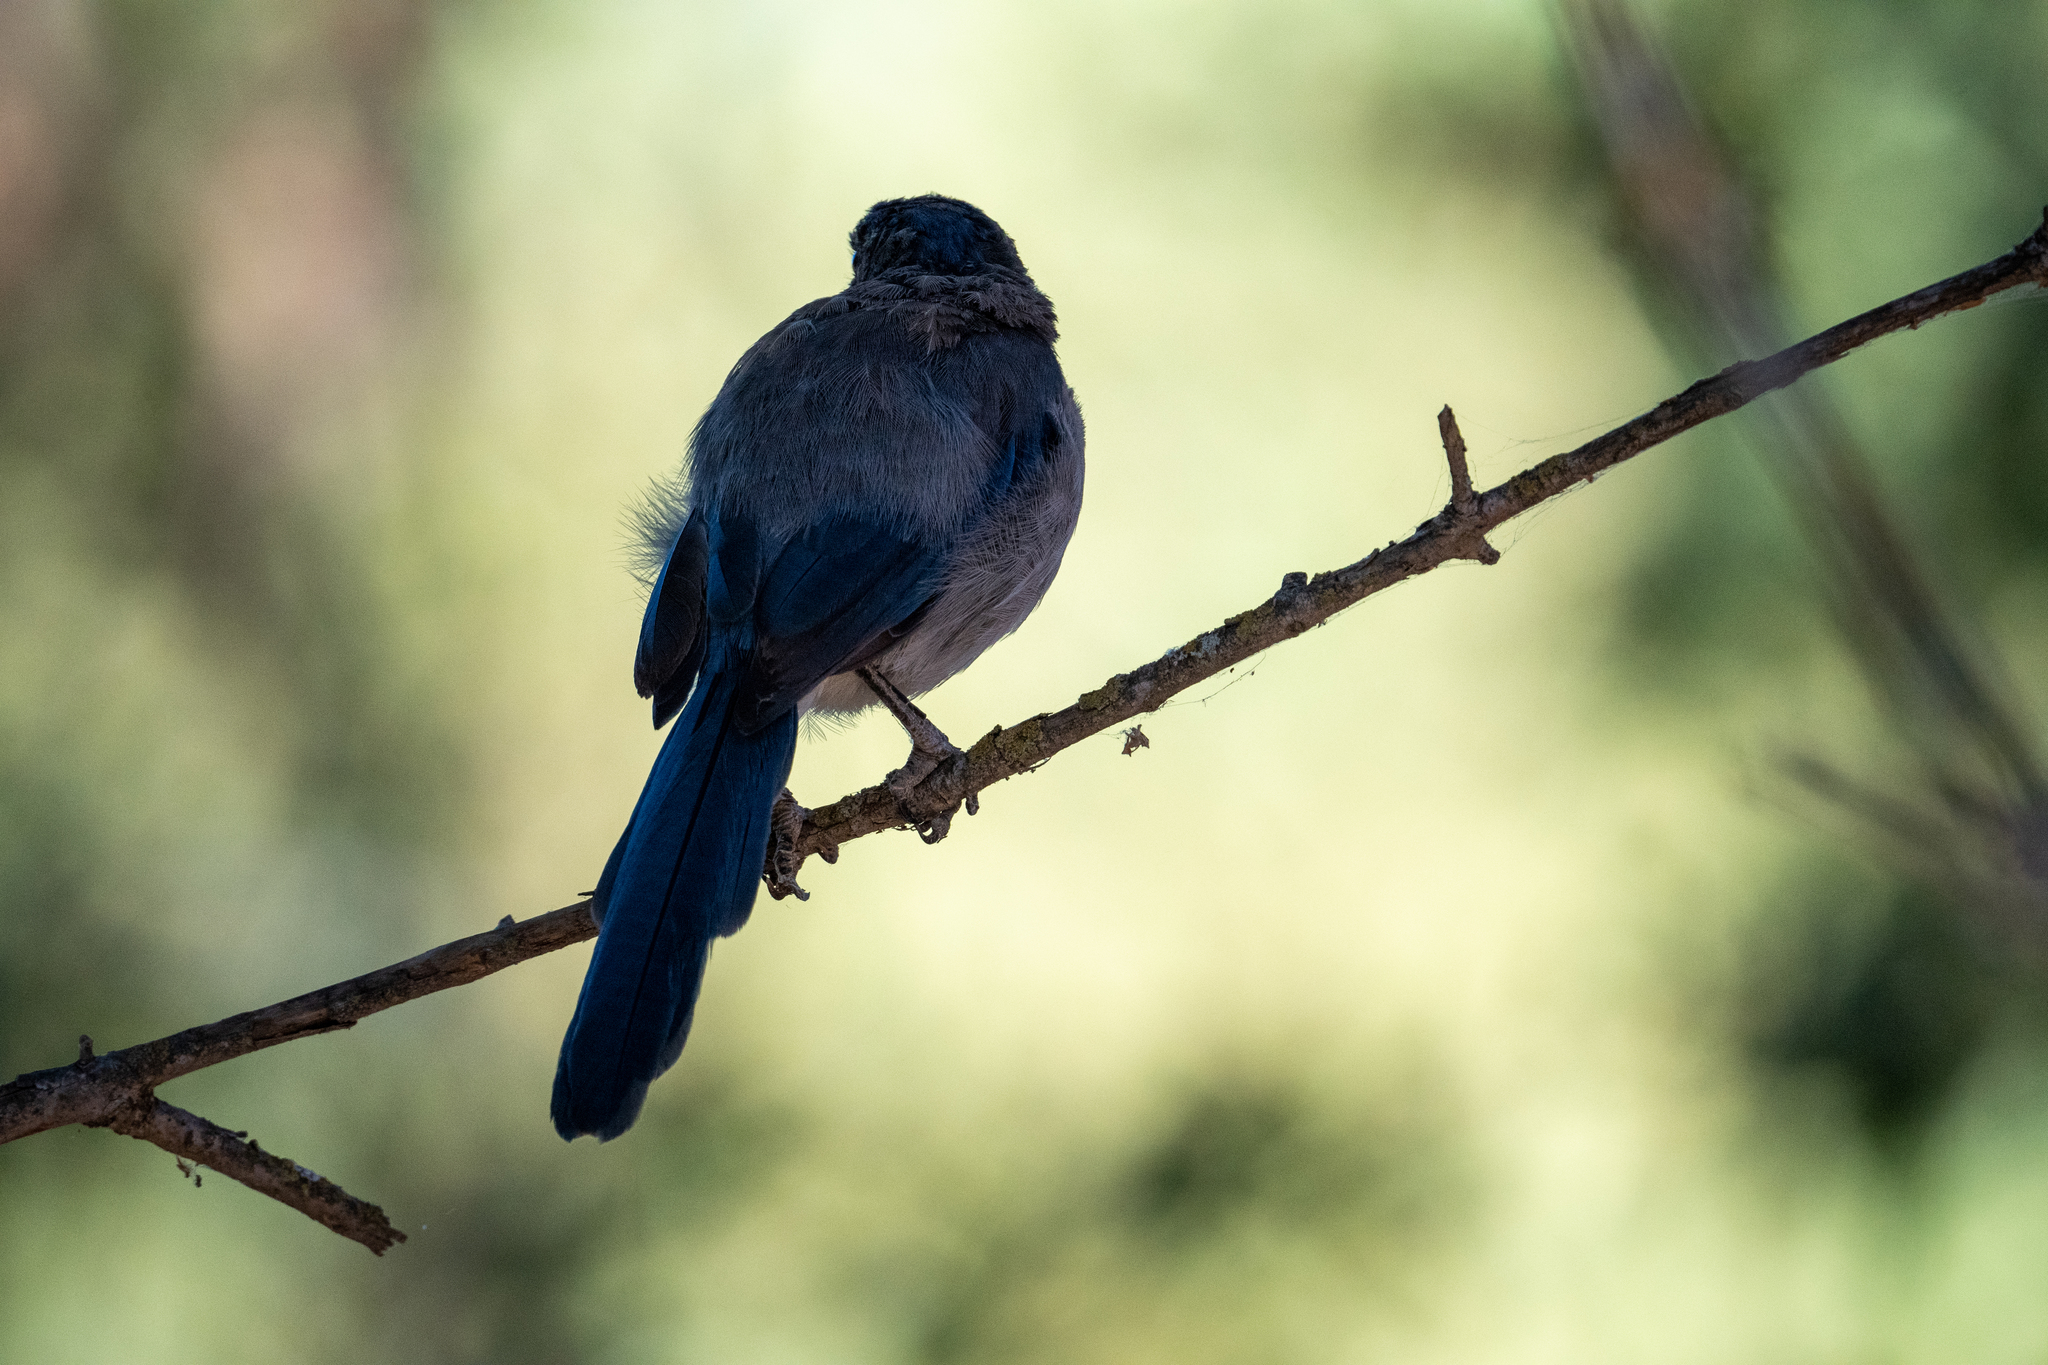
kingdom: Animalia
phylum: Chordata
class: Aves
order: Passeriformes
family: Corvidae
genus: Aphelocoma
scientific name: Aphelocoma californica
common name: California scrub-jay
